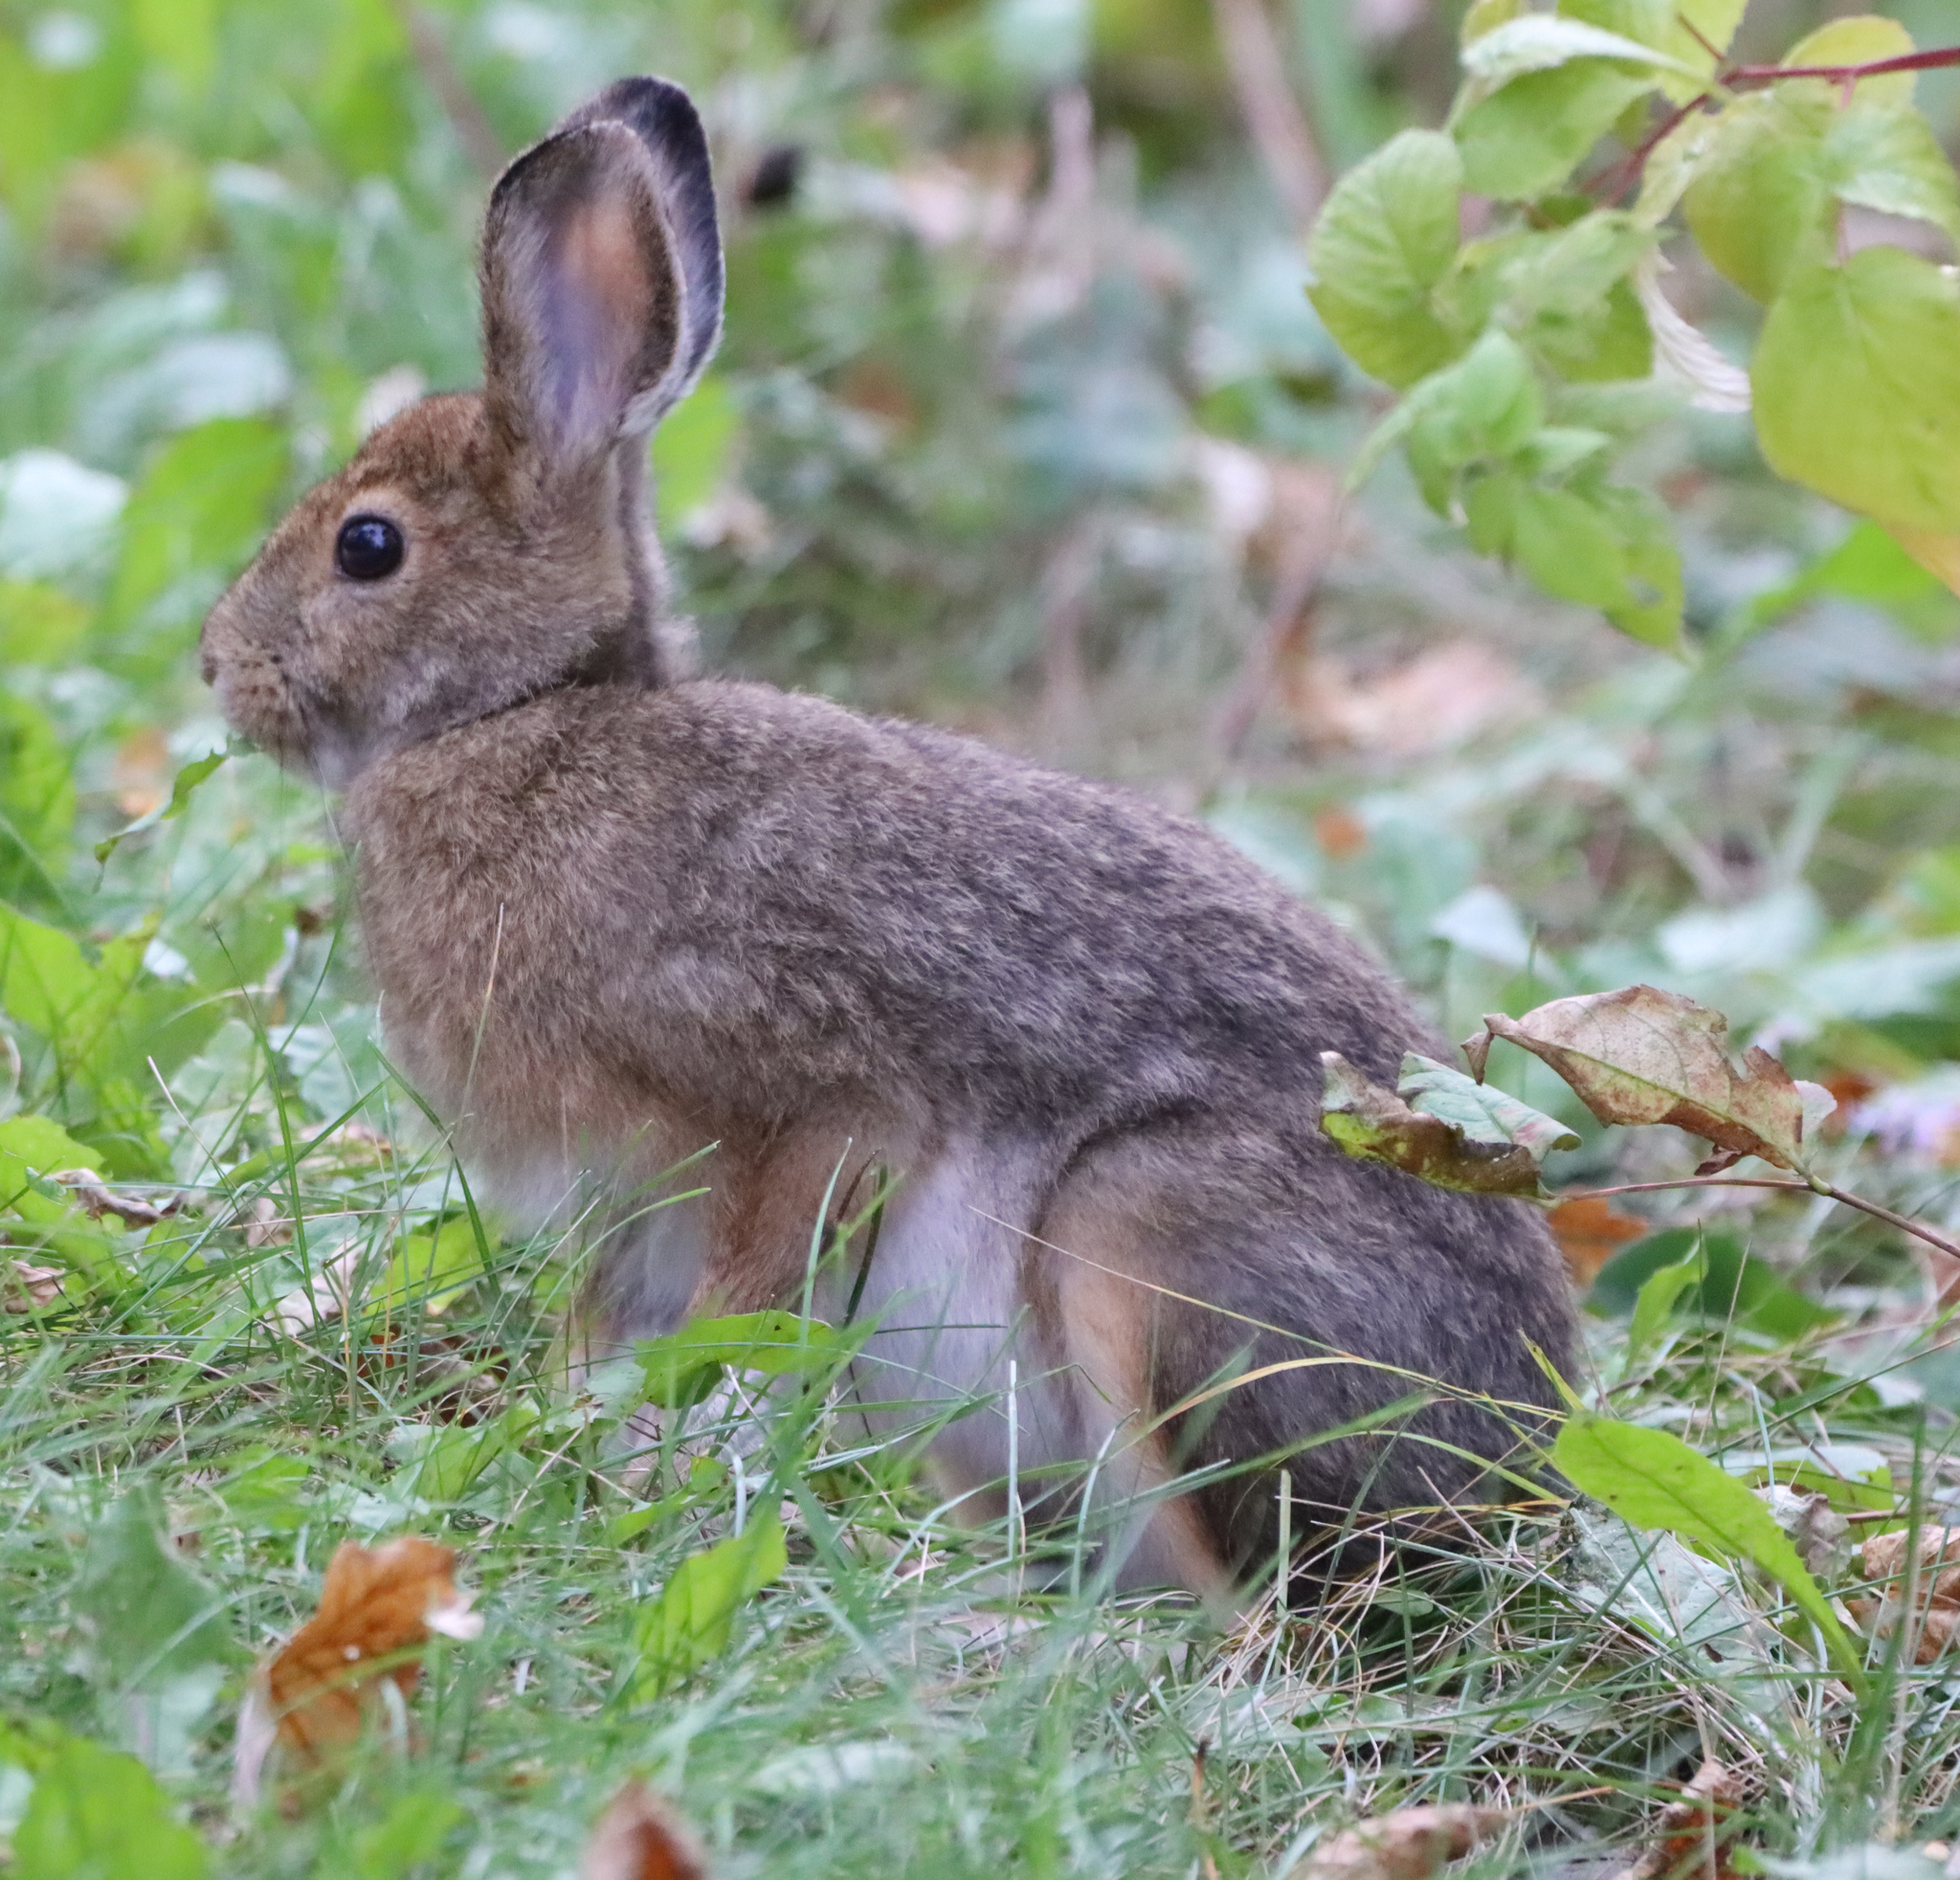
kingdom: Animalia
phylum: Chordata
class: Mammalia
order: Lagomorpha
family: Leporidae
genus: Lepus
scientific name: Lepus americanus
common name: Snowshoe hare
